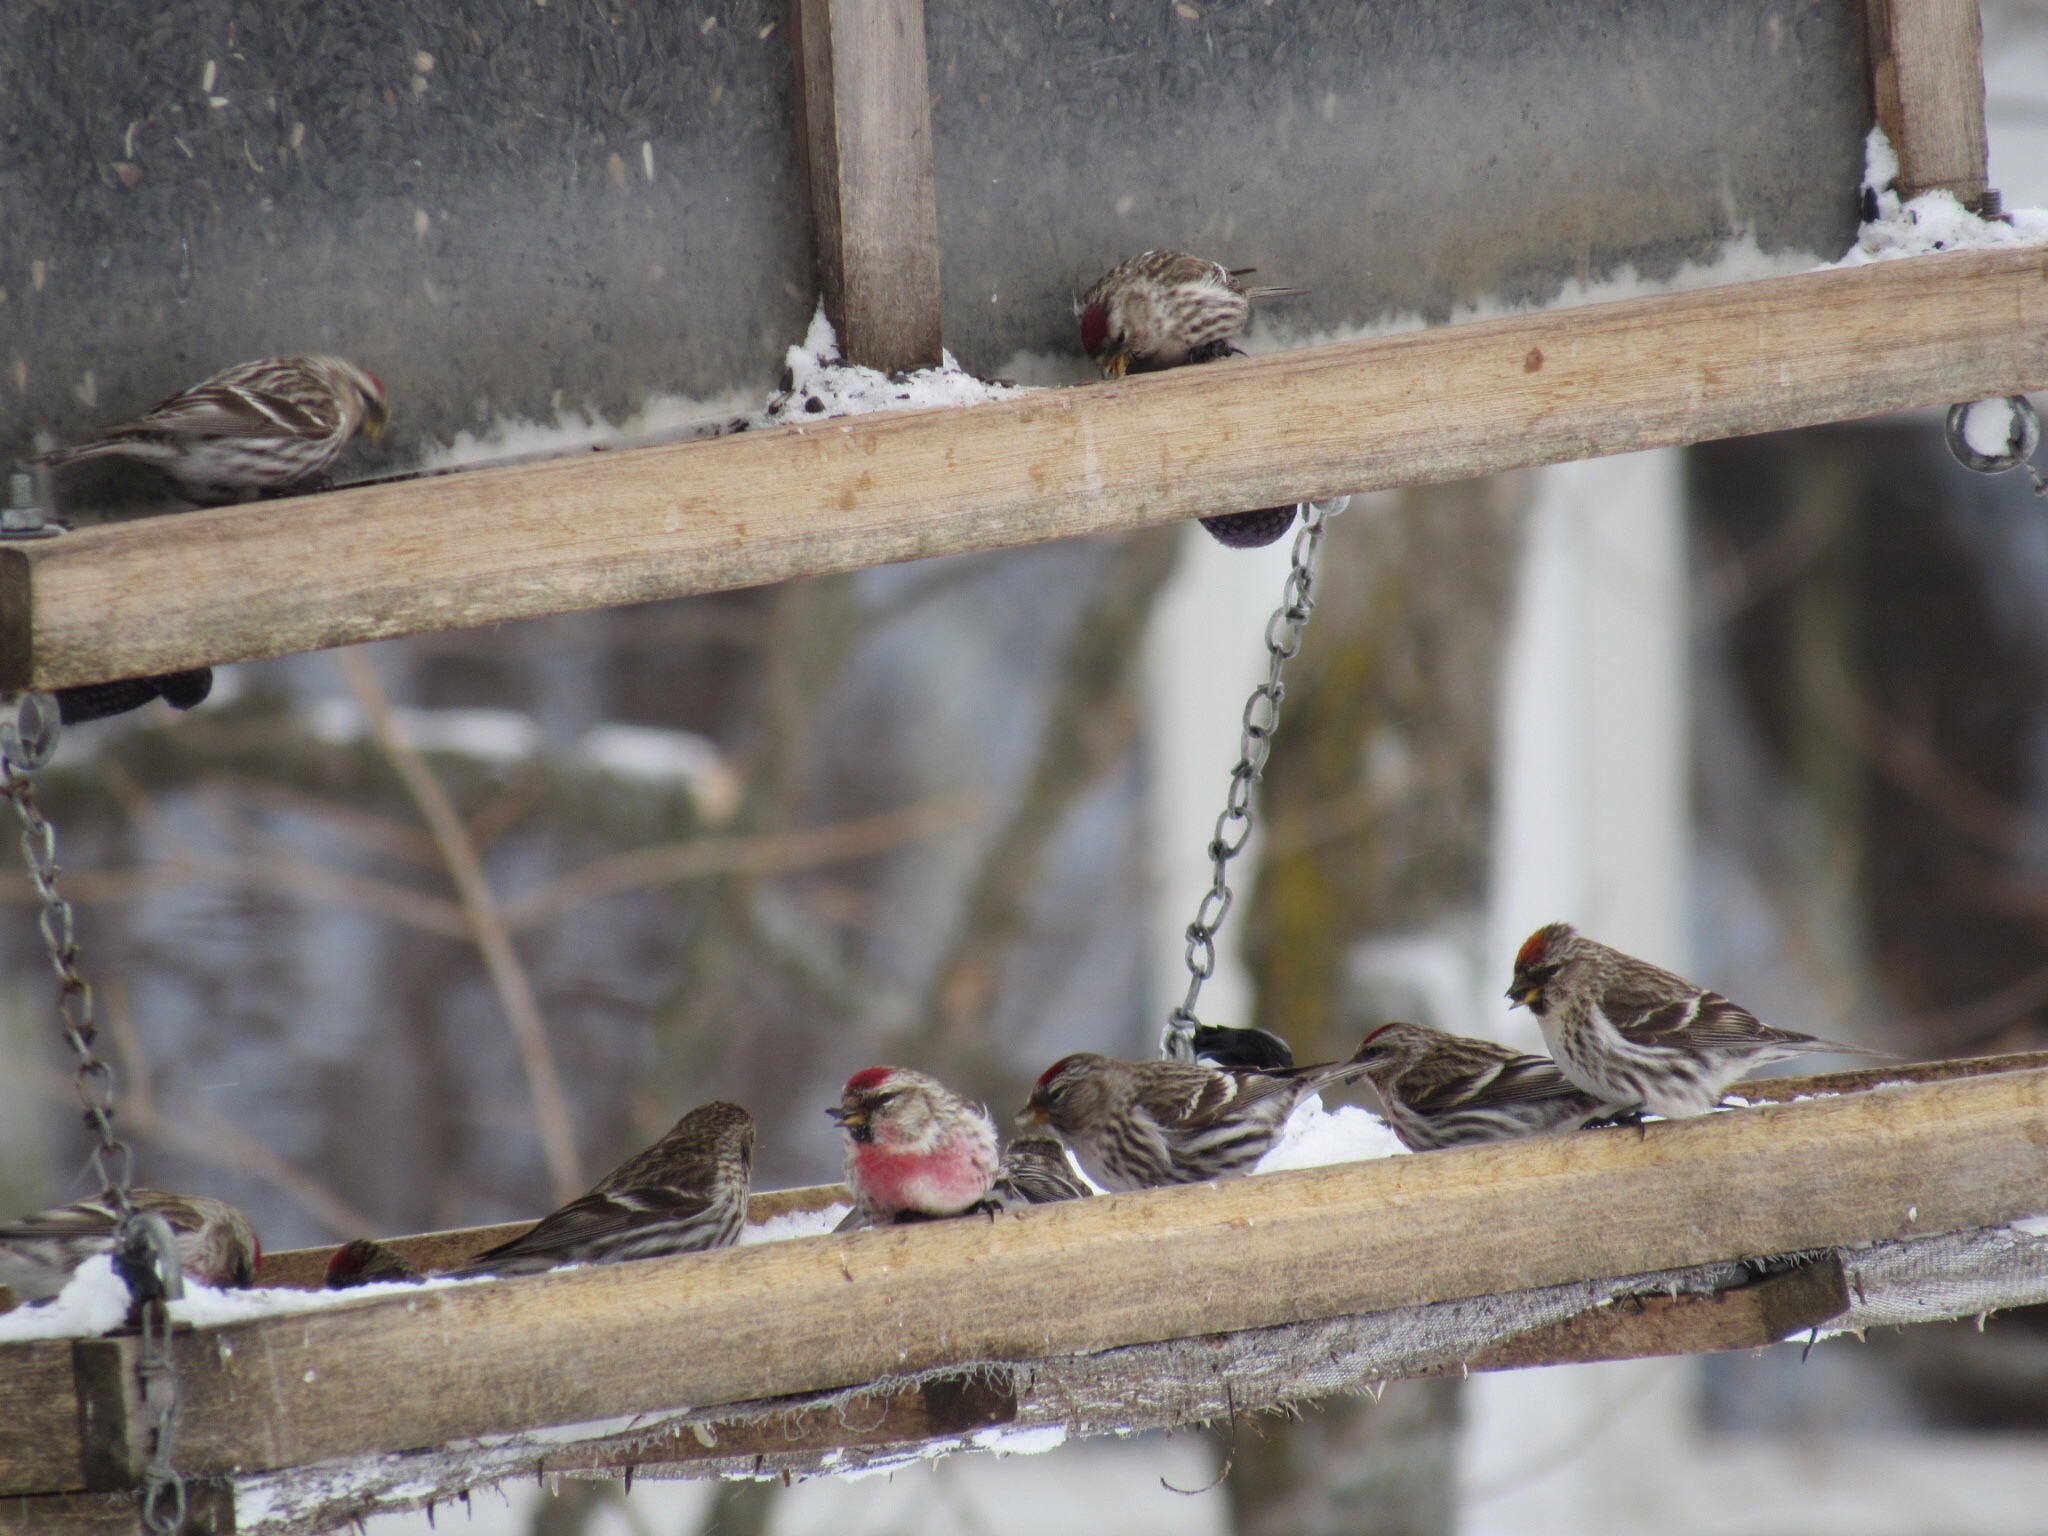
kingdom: Animalia
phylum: Chordata
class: Aves
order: Passeriformes
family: Fringillidae
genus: Acanthis
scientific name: Acanthis flammea
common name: Common redpoll
